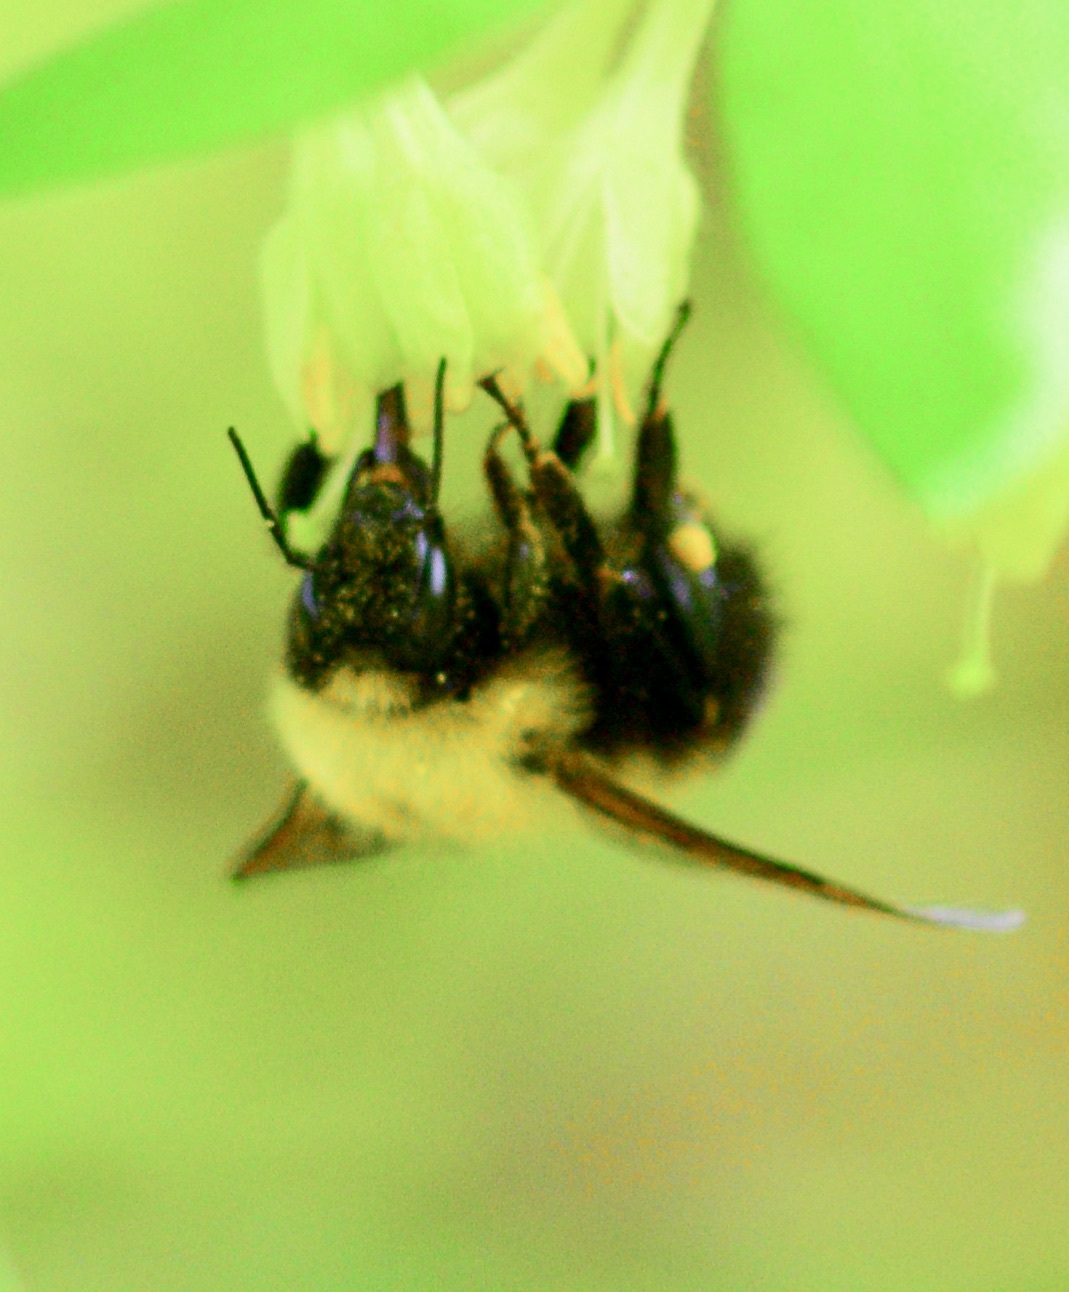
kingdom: Animalia
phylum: Arthropoda
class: Insecta
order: Hymenoptera
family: Apidae
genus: Bombus
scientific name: Bombus perplexus
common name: Confusing bumble bee
